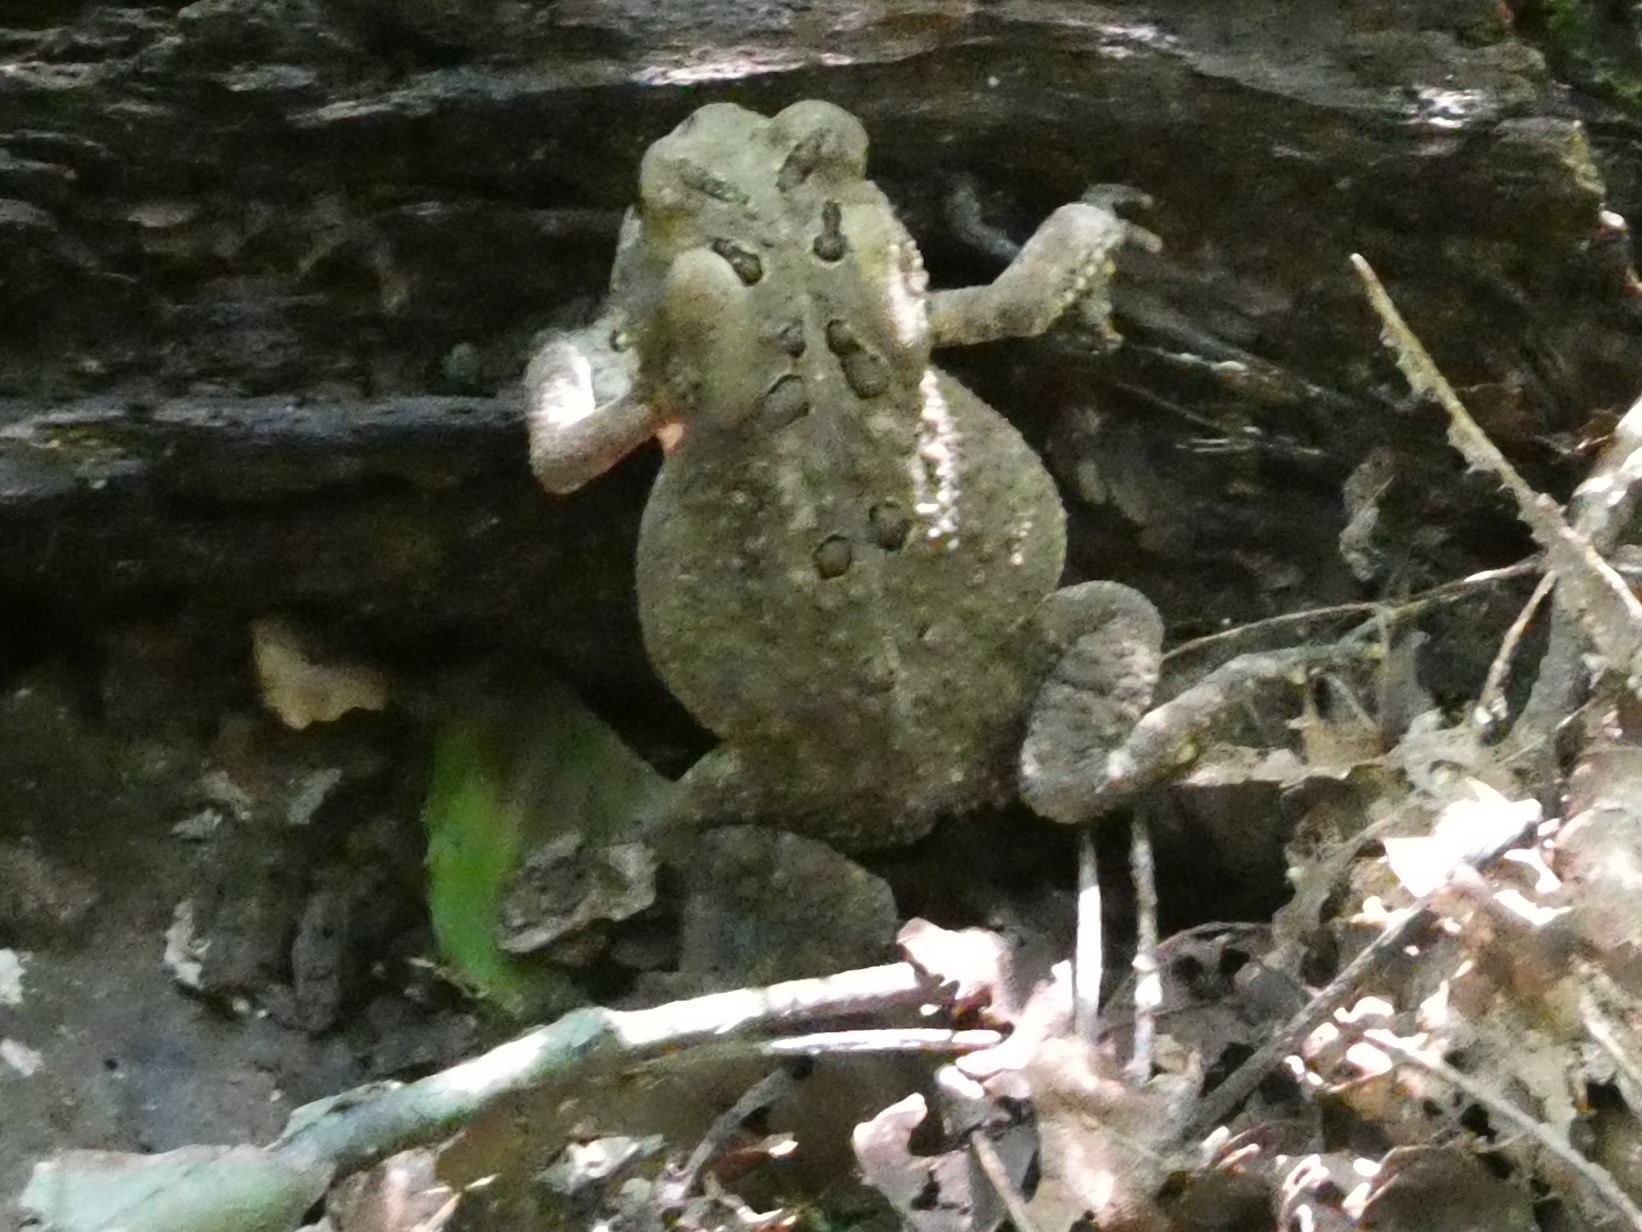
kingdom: Animalia
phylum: Chordata
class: Amphibia
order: Anura
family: Bufonidae
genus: Anaxyrus
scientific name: Anaxyrus americanus
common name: American toad
